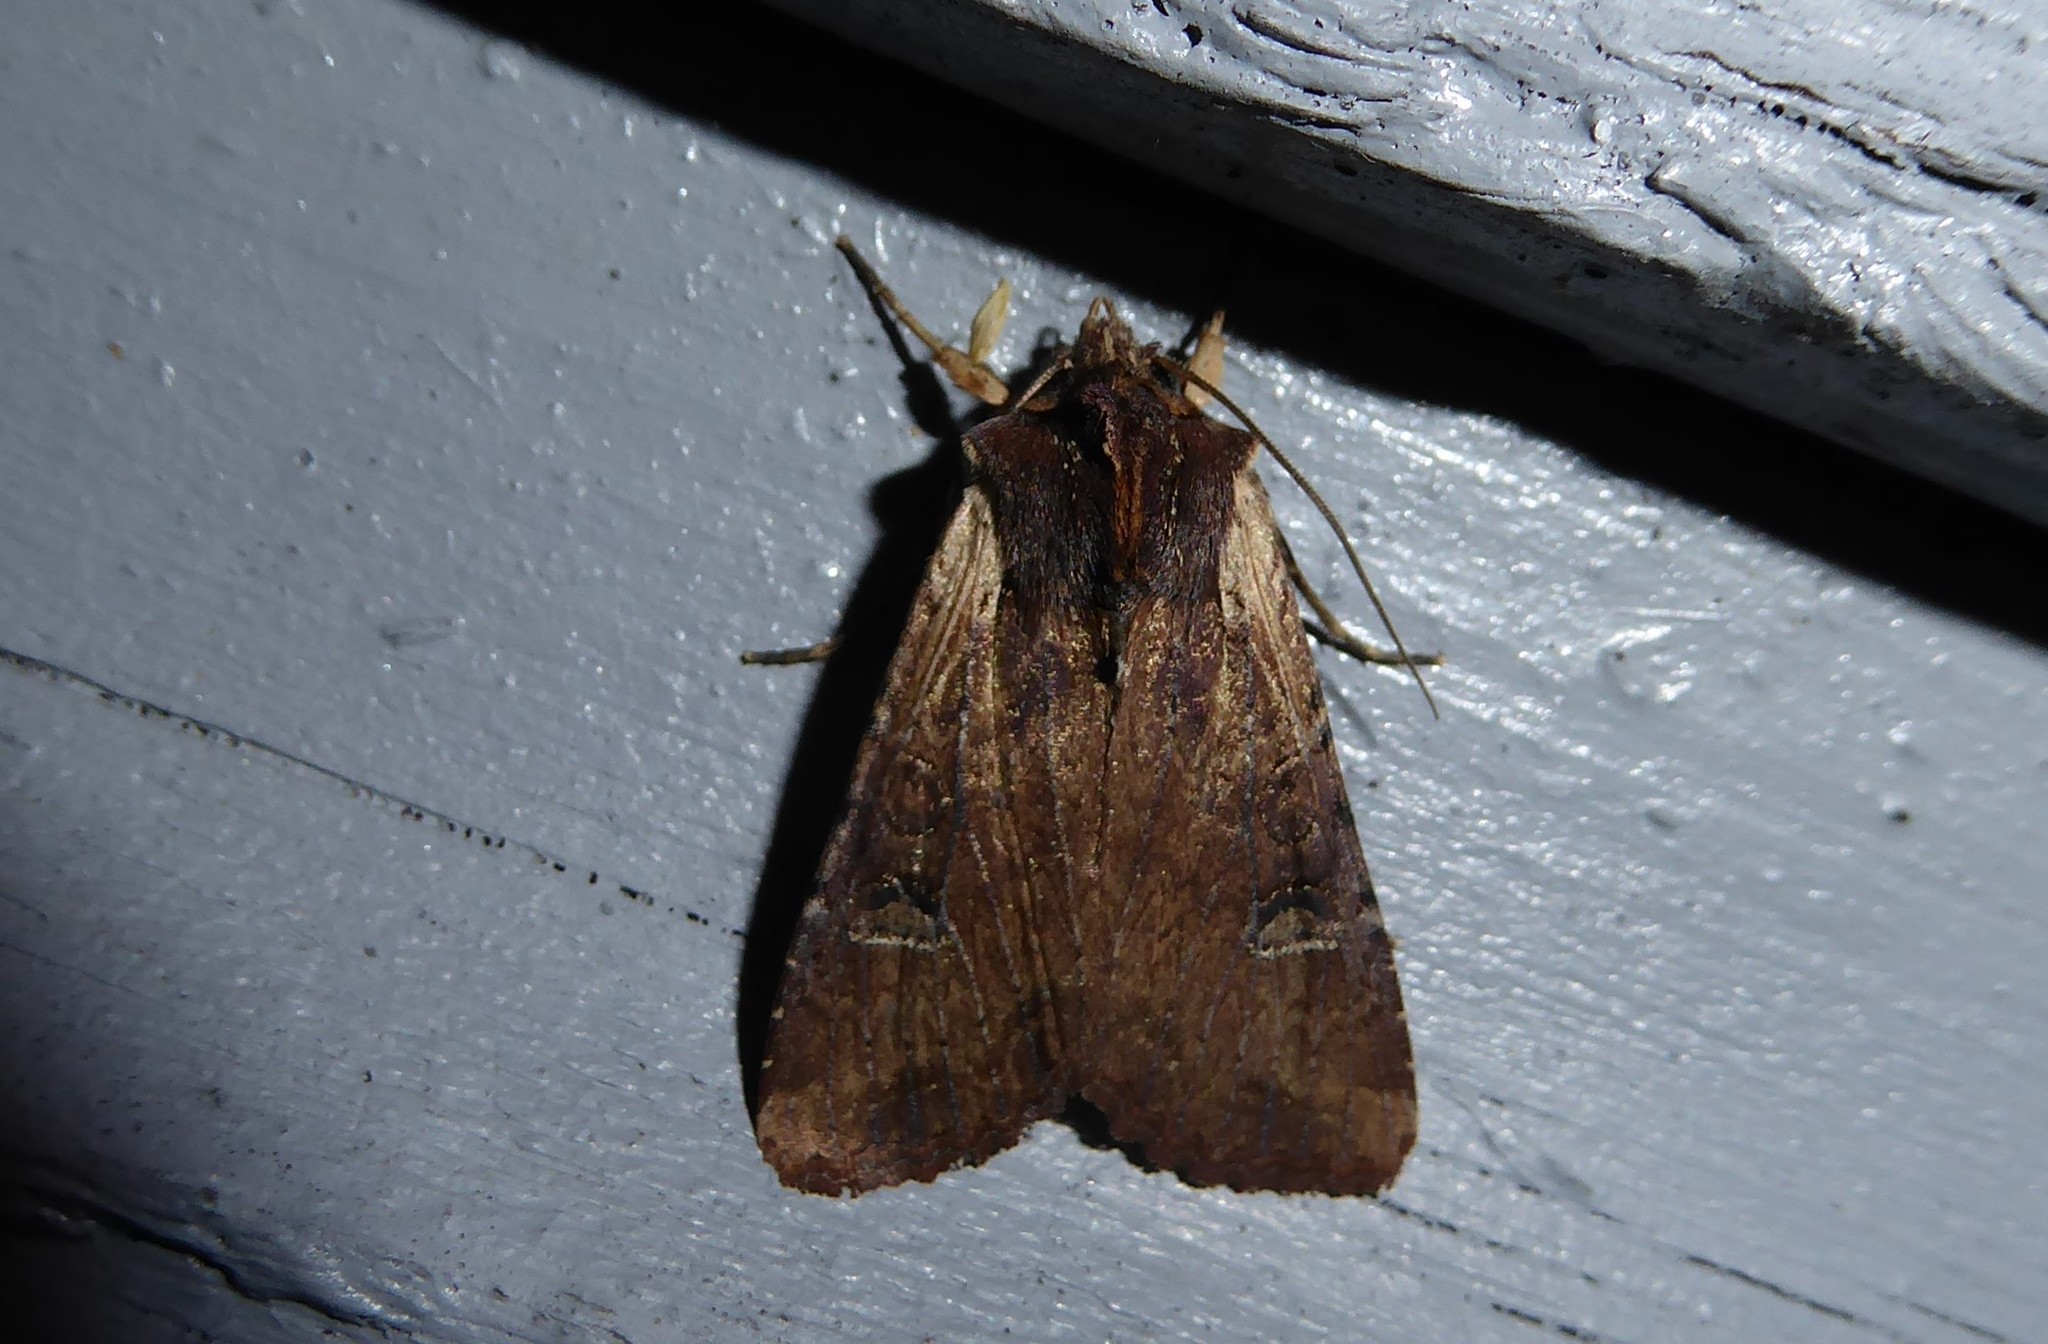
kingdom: Animalia
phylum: Arthropoda
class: Insecta
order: Lepidoptera
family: Noctuidae
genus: Ichneutica
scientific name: Ichneutica omoplaca
